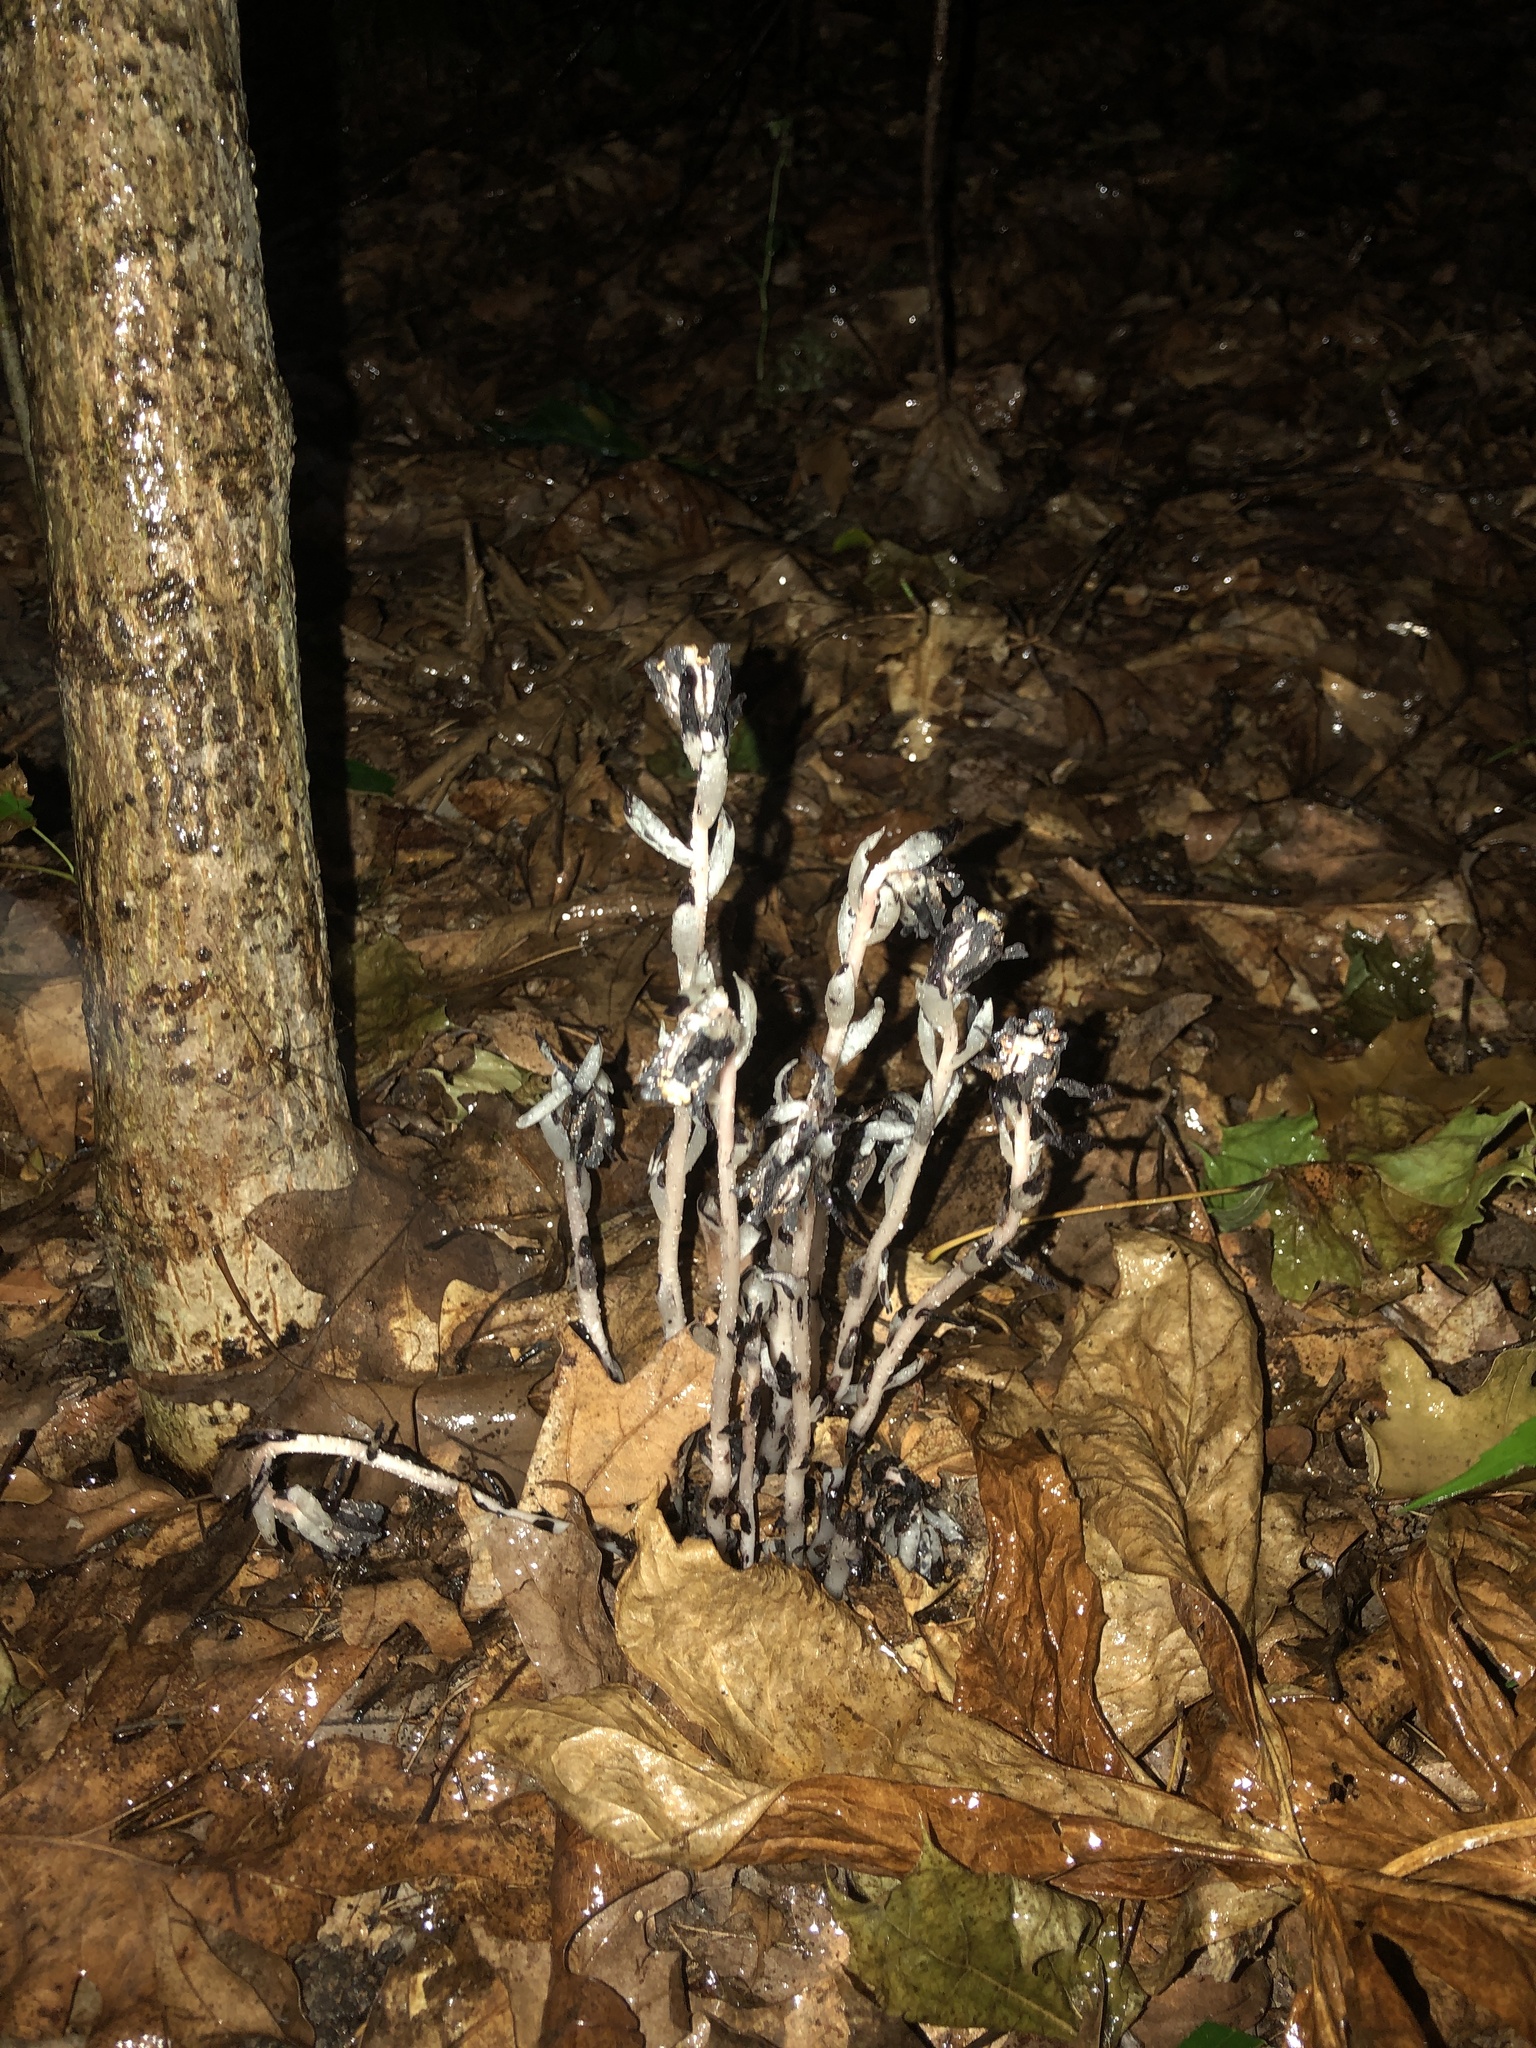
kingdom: Plantae
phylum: Tracheophyta
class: Magnoliopsida
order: Ericales
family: Ericaceae
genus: Monotropa
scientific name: Monotropa uniflora
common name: Convulsion root
